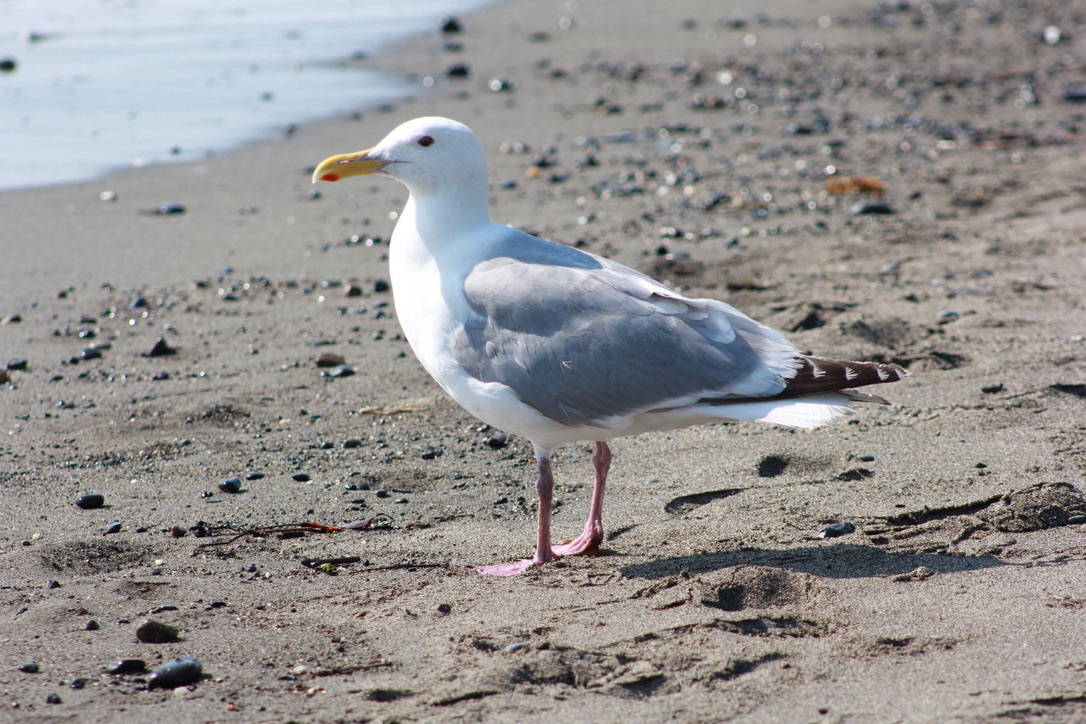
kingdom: Animalia
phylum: Chordata
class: Aves
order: Charadriiformes
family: Laridae
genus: Larus
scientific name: Larus
